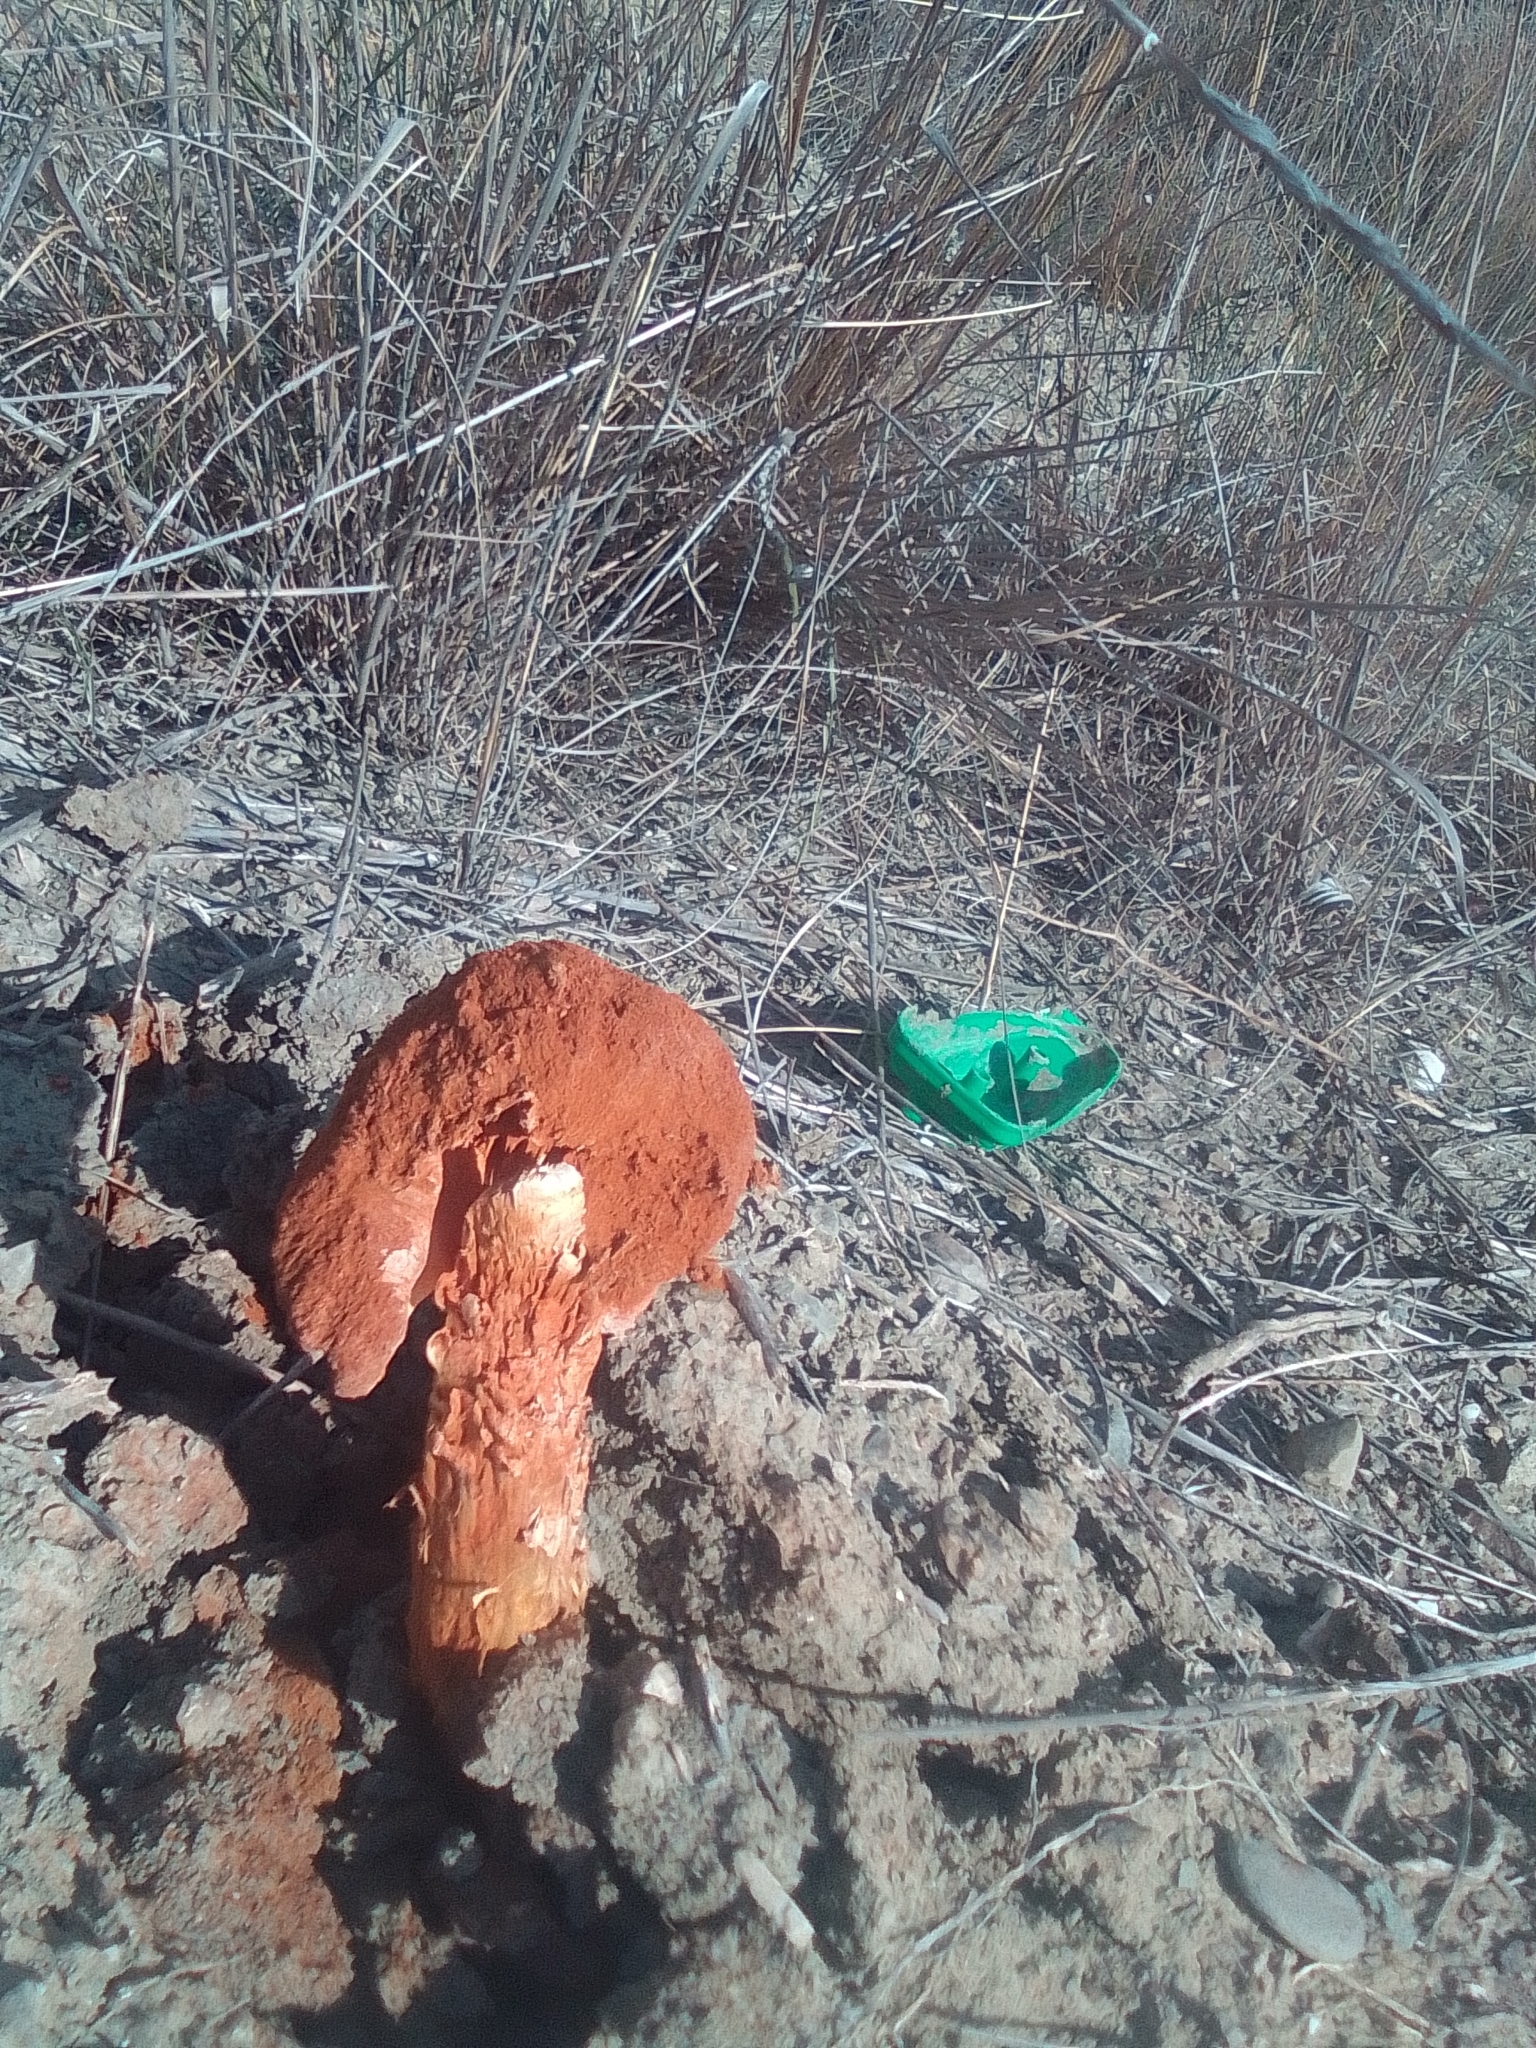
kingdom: Fungi
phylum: Basidiomycota
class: Agaricomycetes
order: Agaricales
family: Agaricaceae
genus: Battarrea
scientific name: Battarrea phalloides
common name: Sandy stiltball
